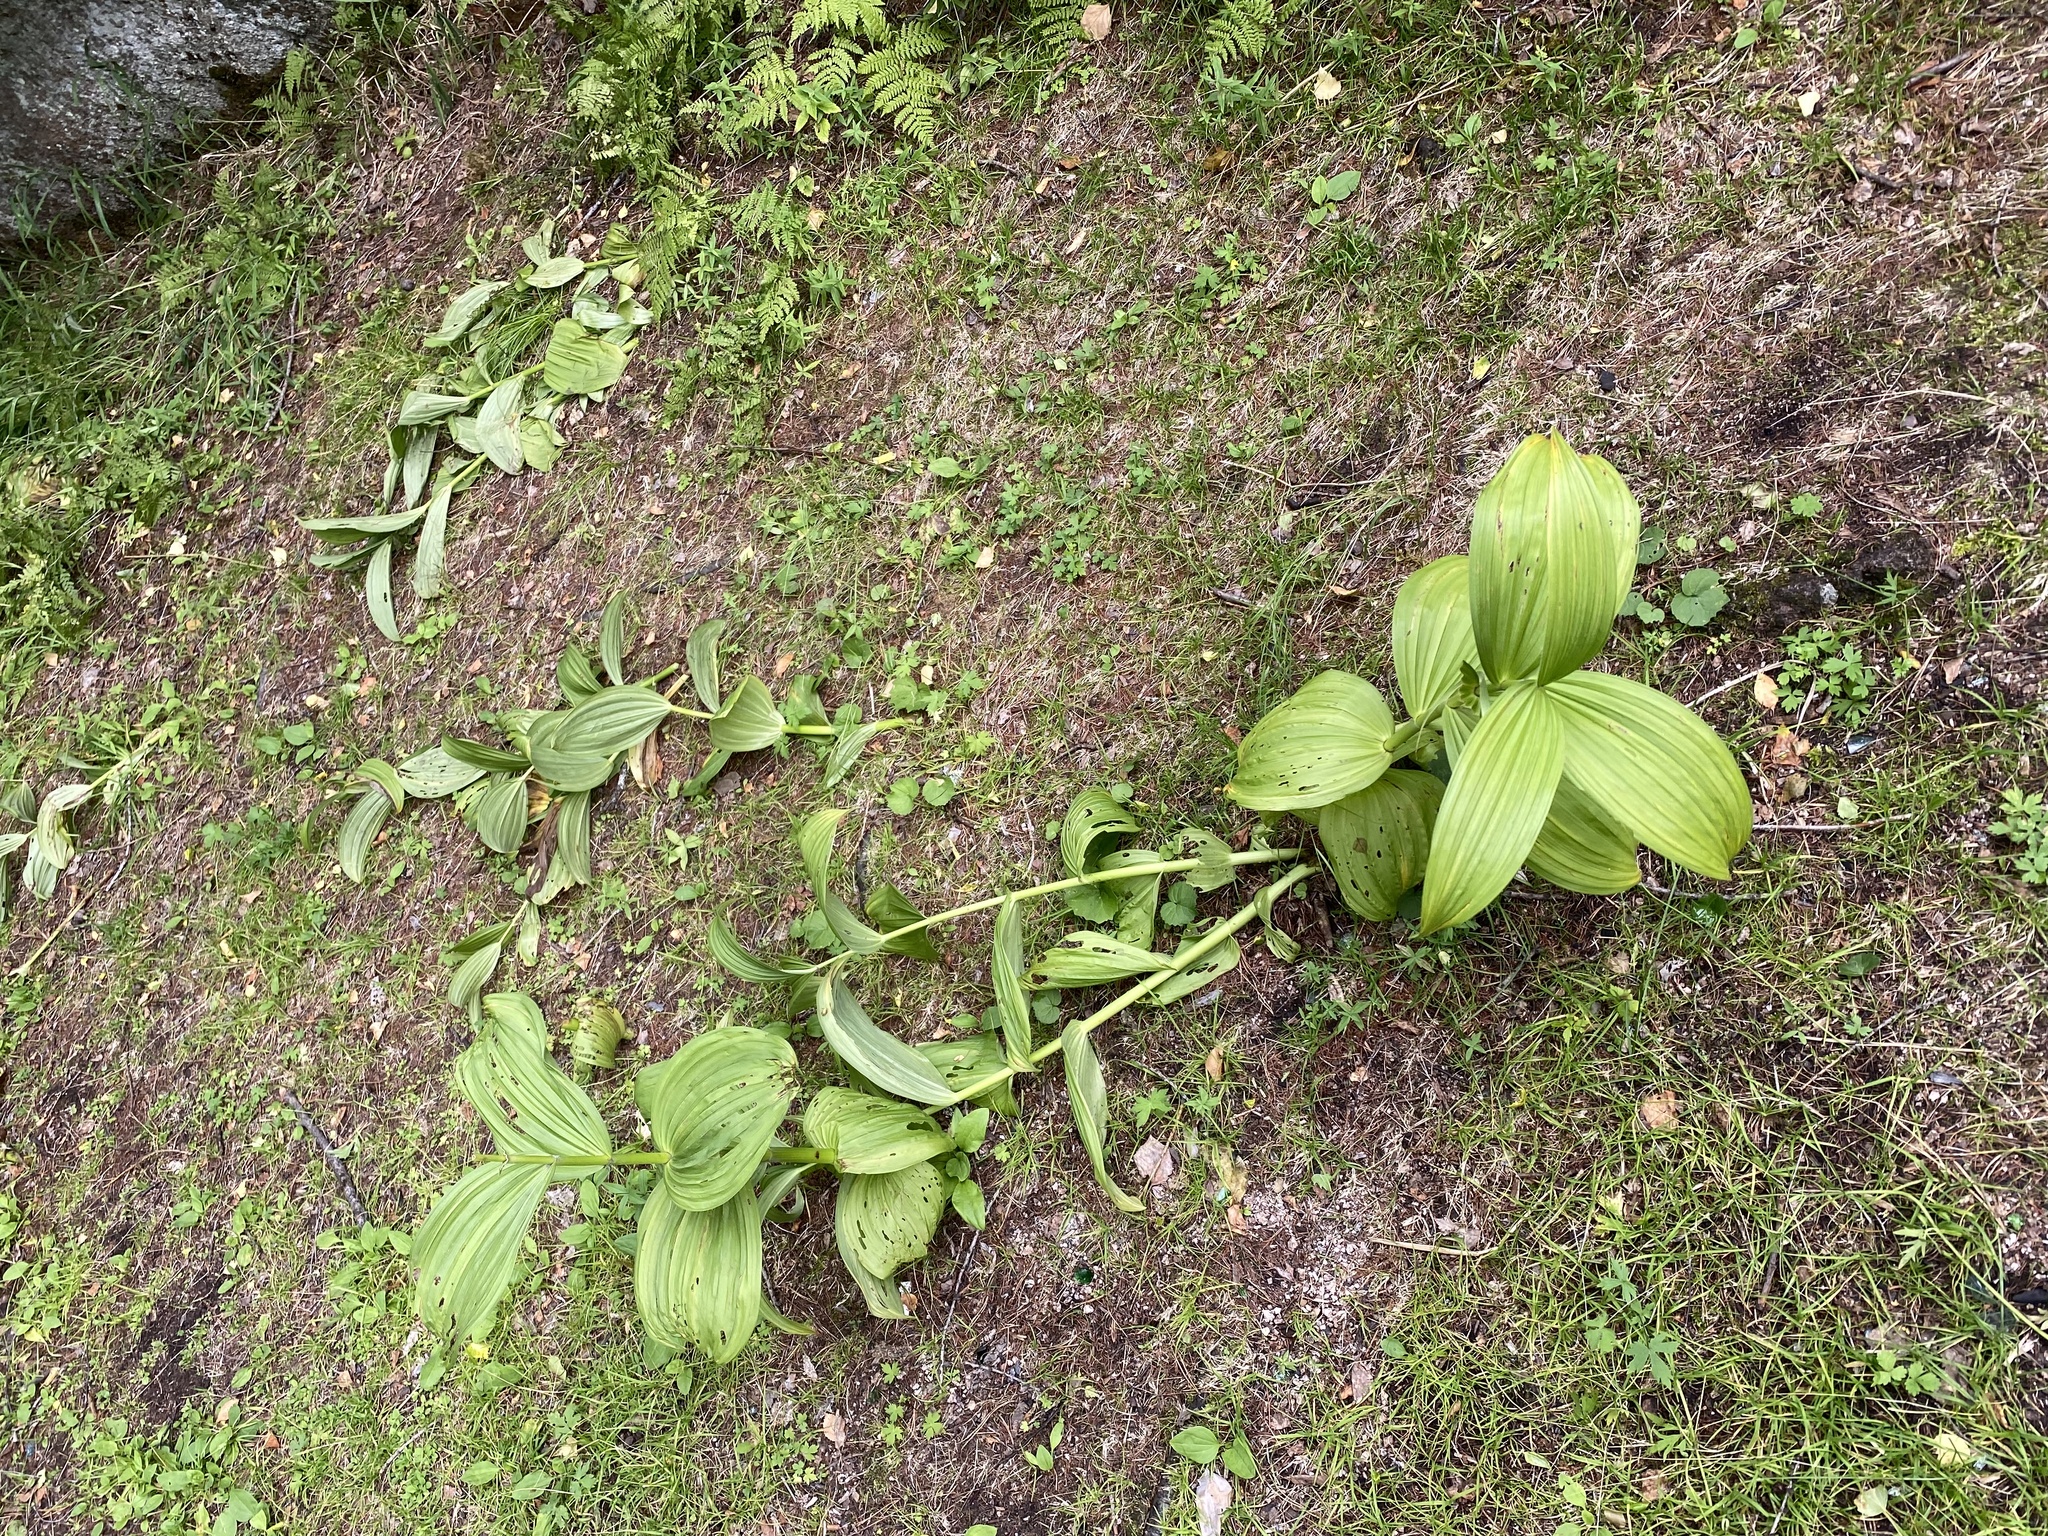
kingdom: Plantae
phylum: Tracheophyta
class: Liliopsida
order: Liliales
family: Melanthiaceae
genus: Veratrum
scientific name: Veratrum lobelianum
